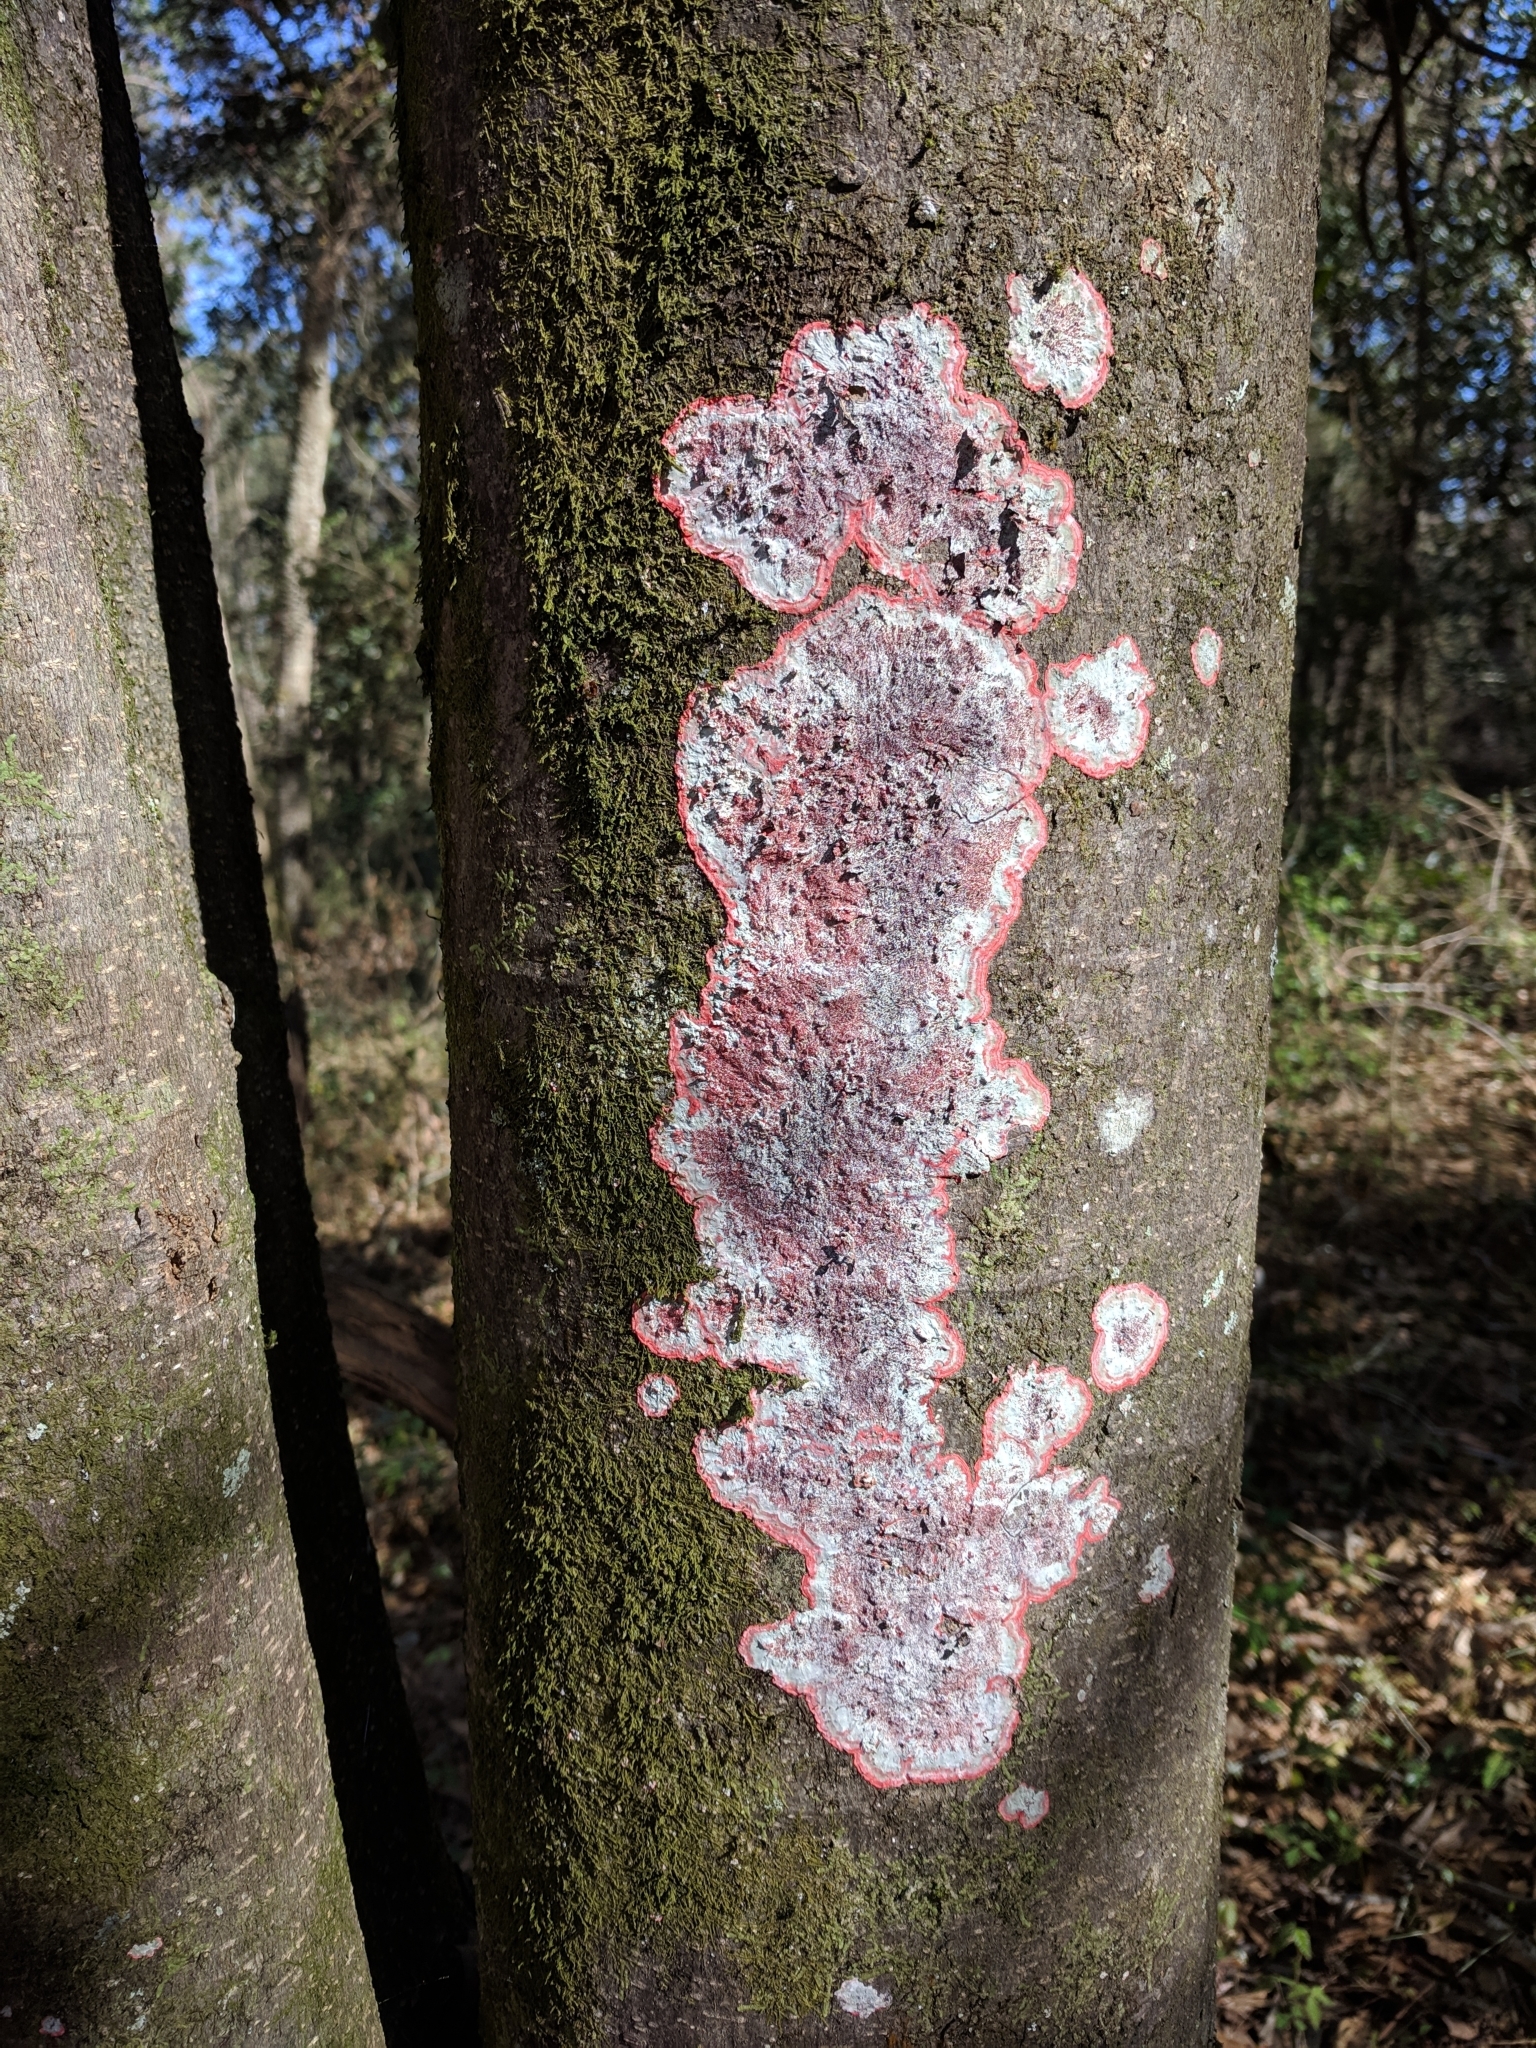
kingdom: Fungi
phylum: Ascomycota
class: Arthoniomycetes
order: Arthoniales
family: Arthoniaceae
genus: Herpothallon
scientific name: Herpothallon rubrocinctum
